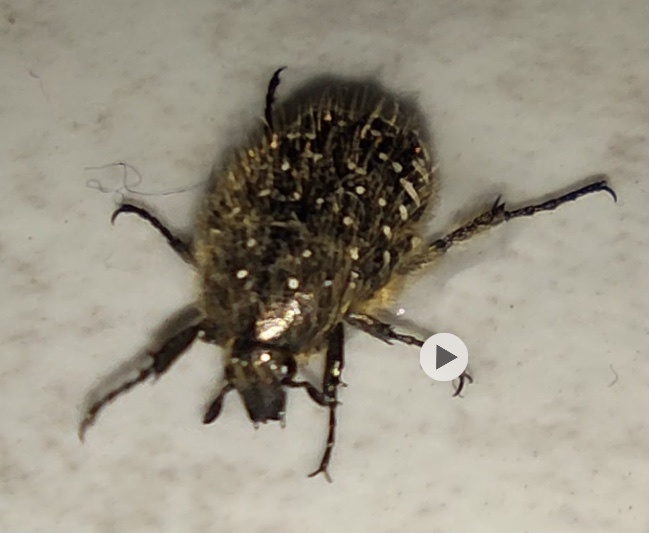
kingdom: Animalia
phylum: Arthropoda
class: Insecta
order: Coleoptera
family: Scarabaeidae
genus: Oxythyrea
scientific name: Oxythyrea funesta
